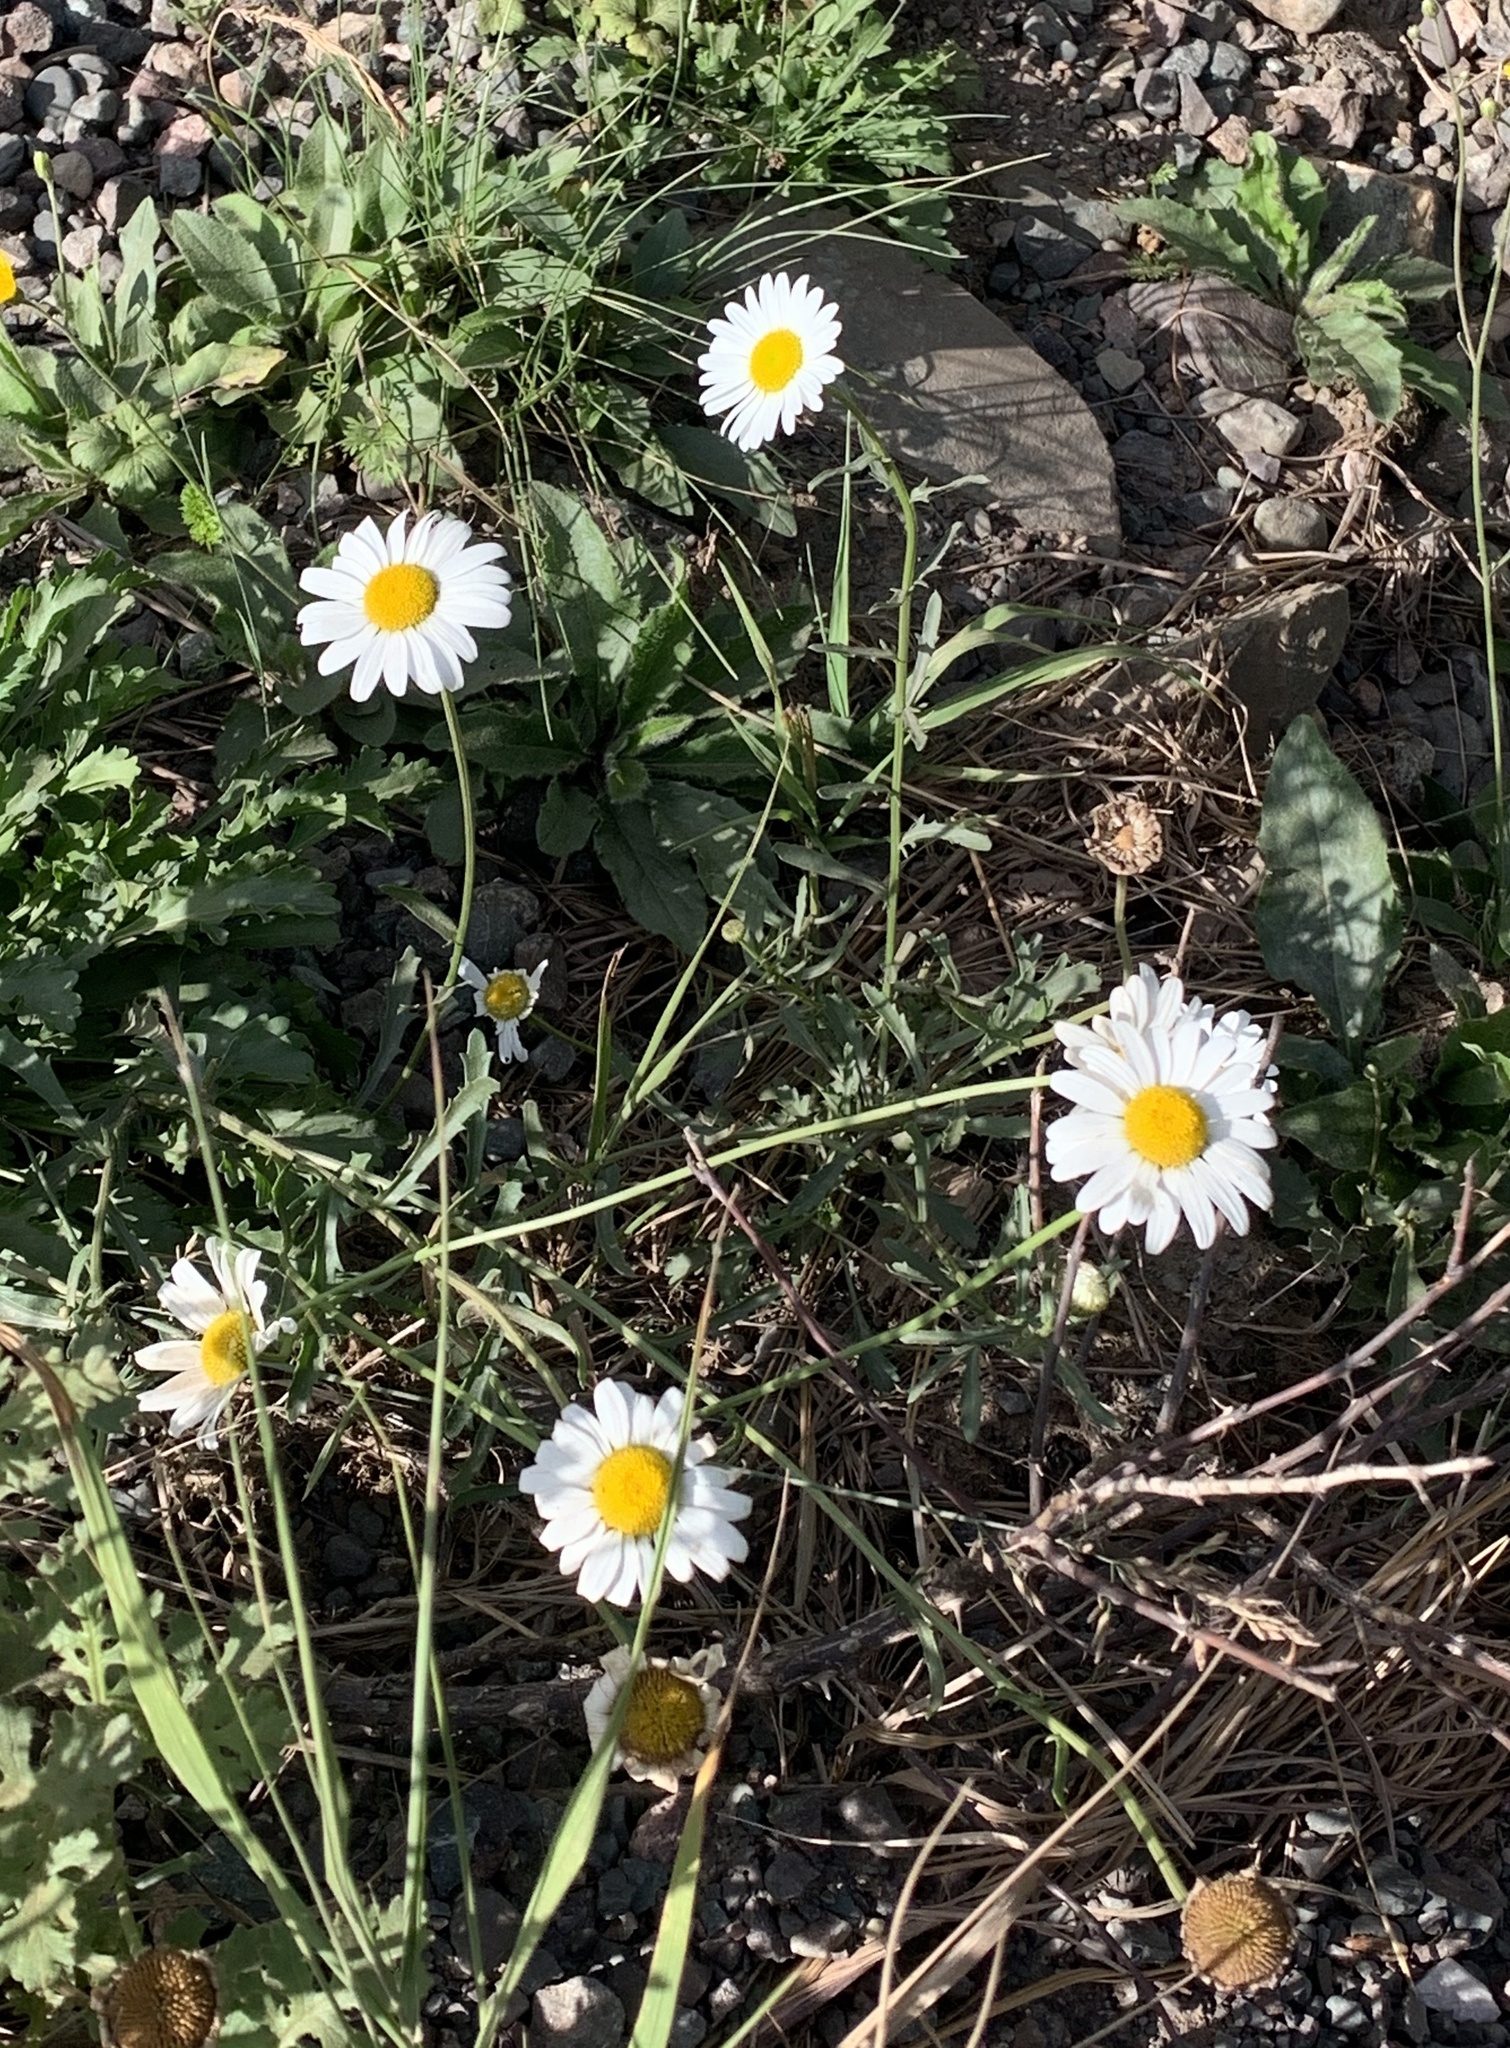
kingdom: Plantae
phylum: Tracheophyta
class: Magnoliopsida
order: Asterales
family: Asteraceae
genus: Leucanthemum
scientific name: Leucanthemum vulgare
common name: Oxeye daisy
